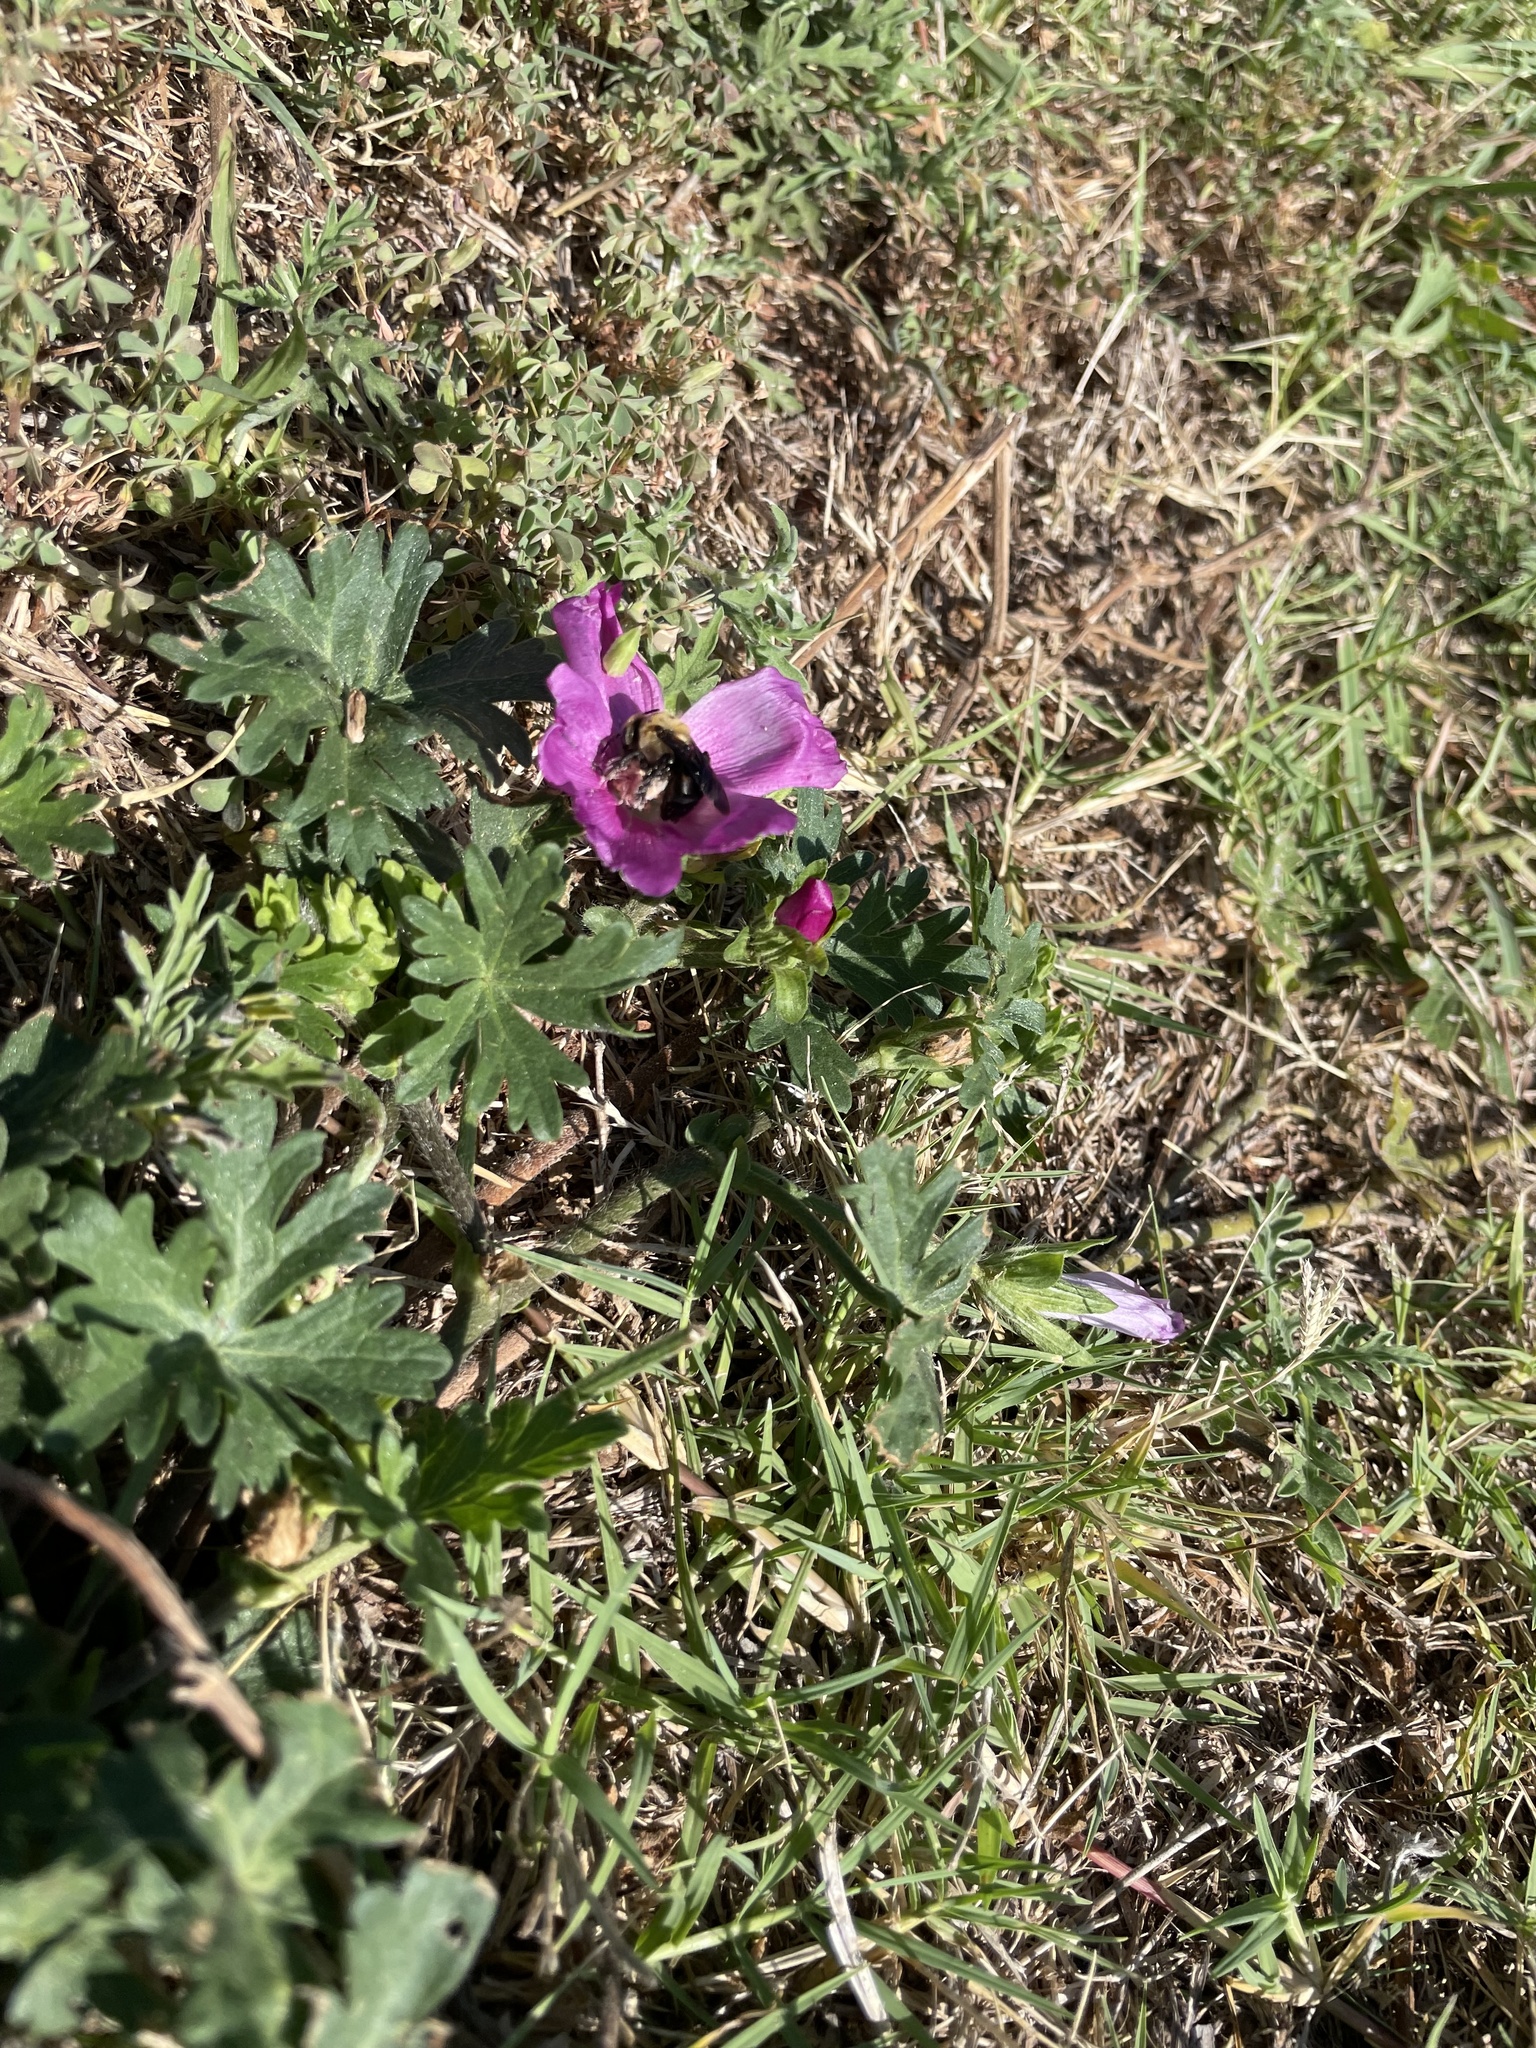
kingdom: Animalia
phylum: Arthropoda
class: Insecta
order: Hymenoptera
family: Apidae
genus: Ptilothrix
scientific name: Ptilothrix bombiformis
